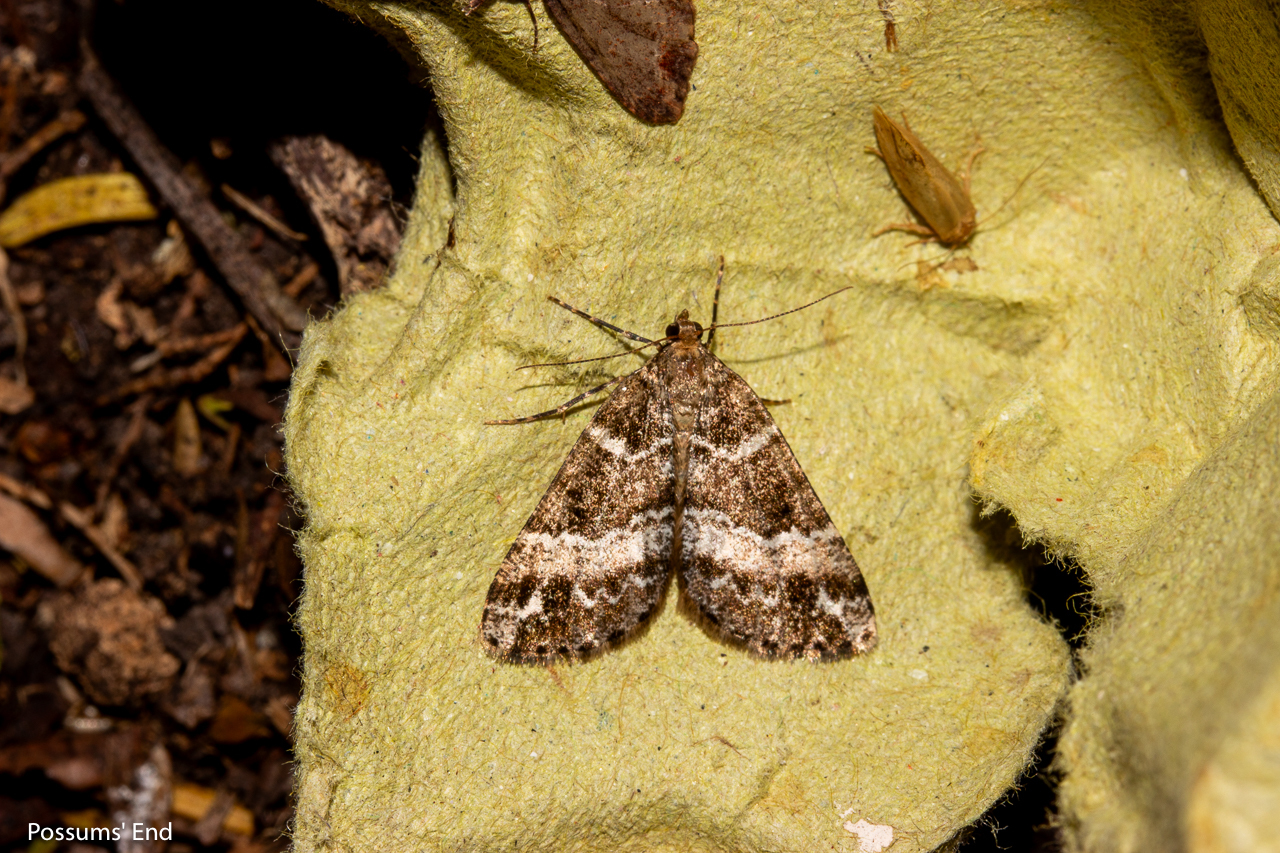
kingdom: Animalia
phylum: Arthropoda
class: Insecta
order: Lepidoptera
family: Geometridae
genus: Pseudocoremia
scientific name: Pseudocoremia
